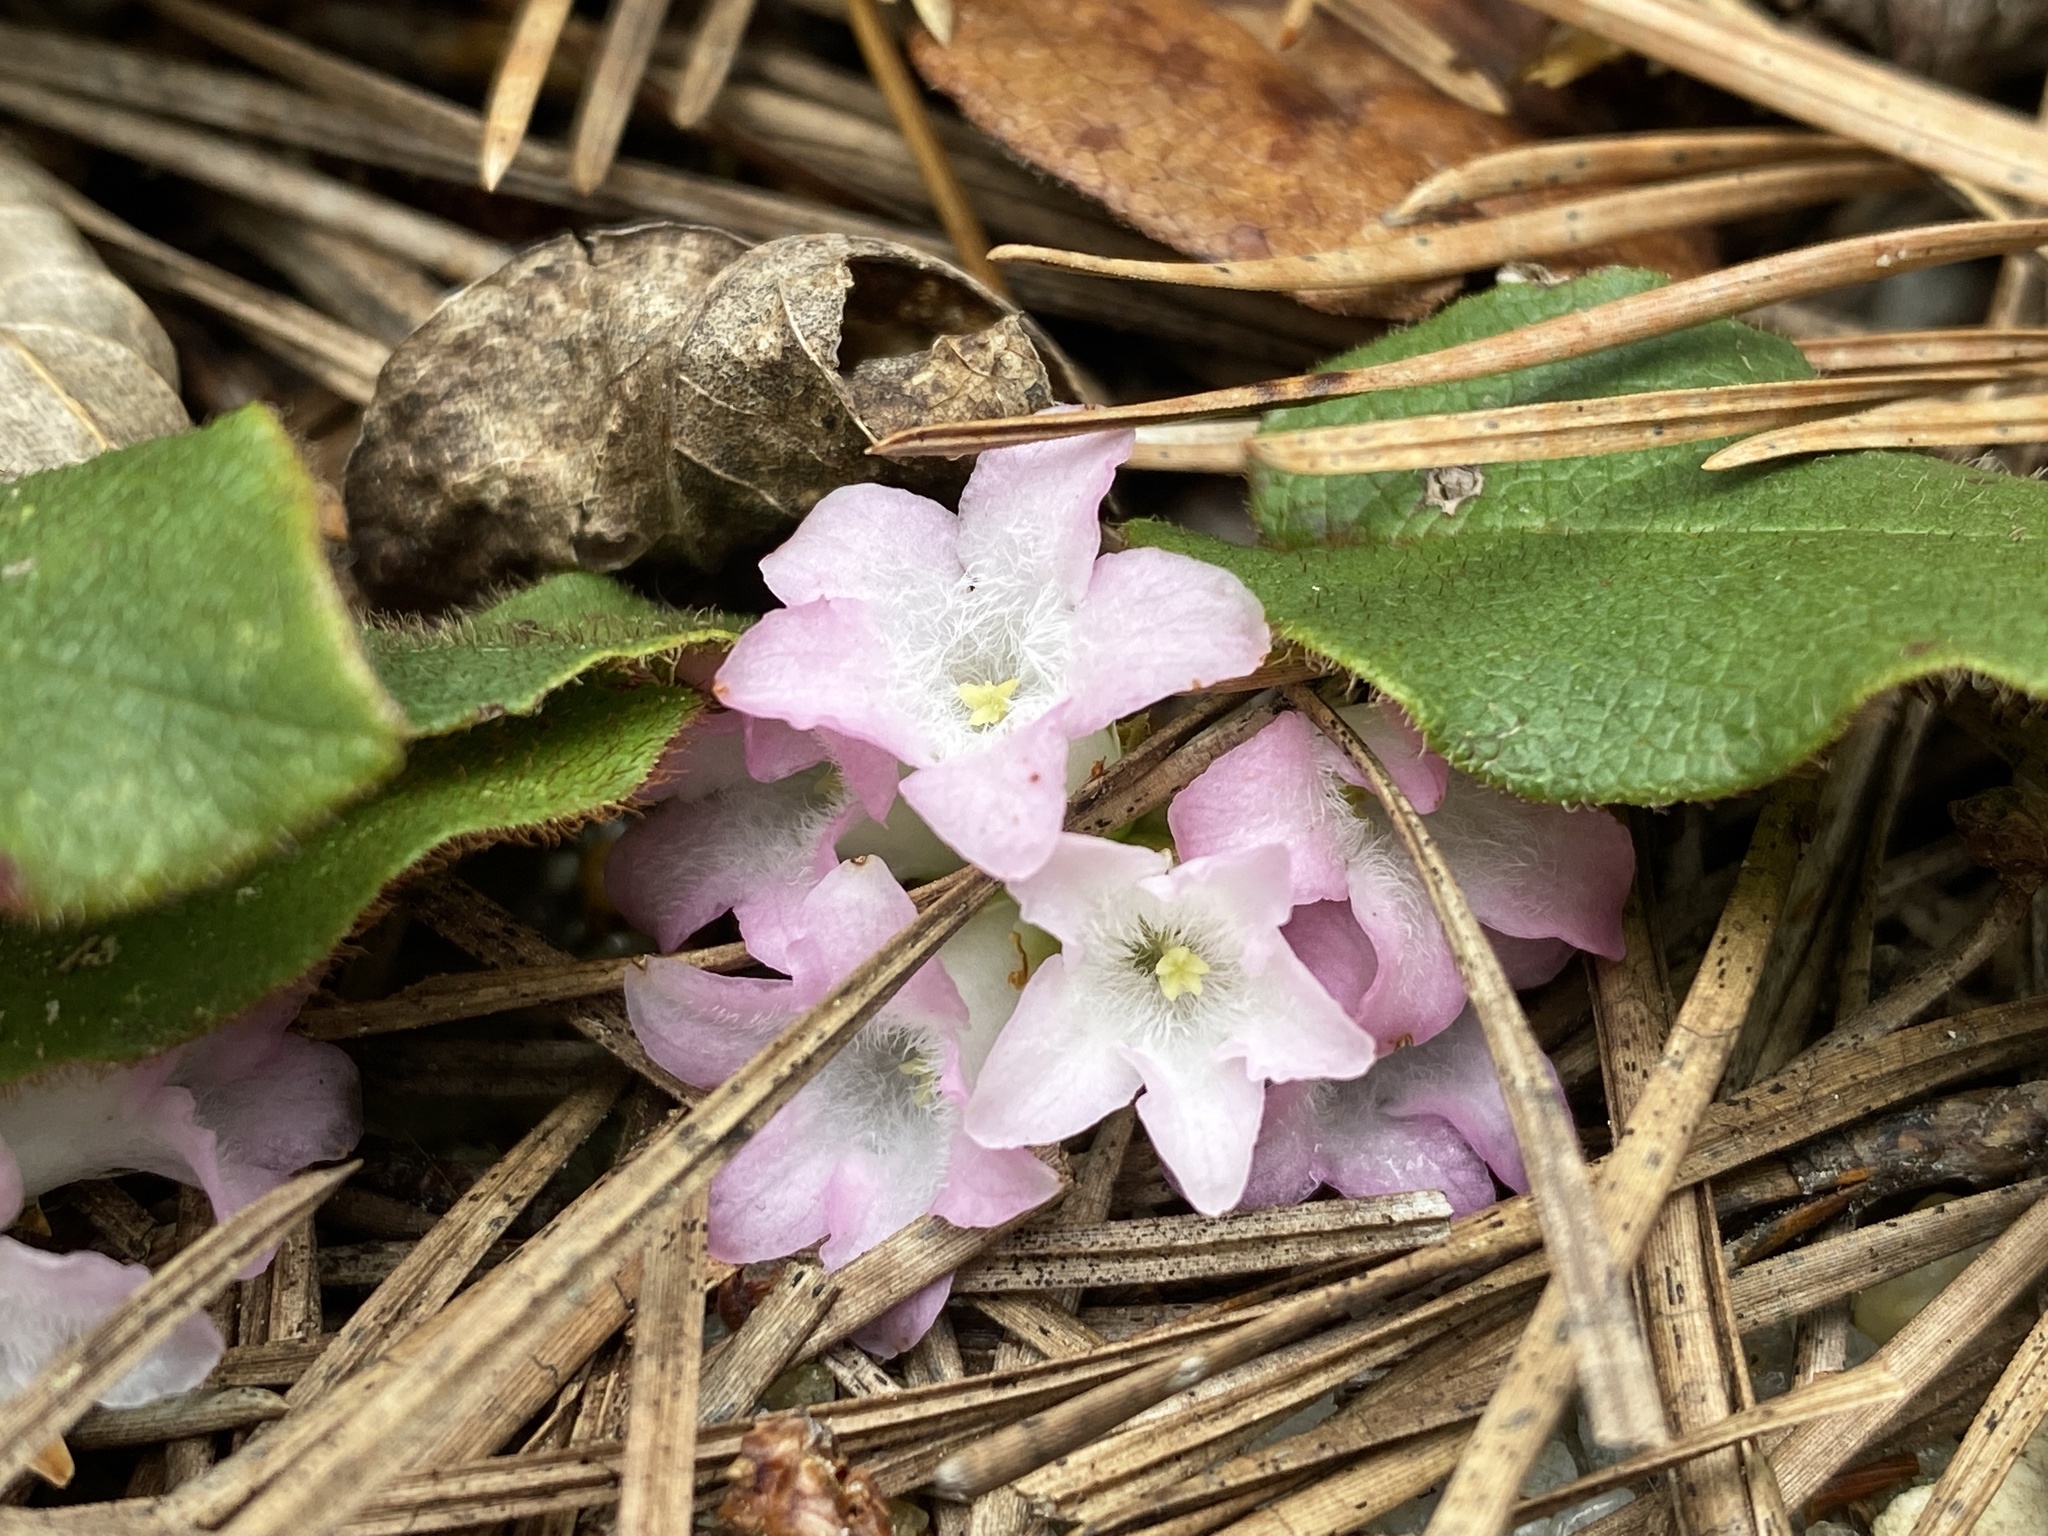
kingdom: Plantae
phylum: Tracheophyta
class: Magnoliopsida
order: Ericales
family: Ericaceae
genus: Epigaea
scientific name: Epigaea repens
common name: Gravelroot
